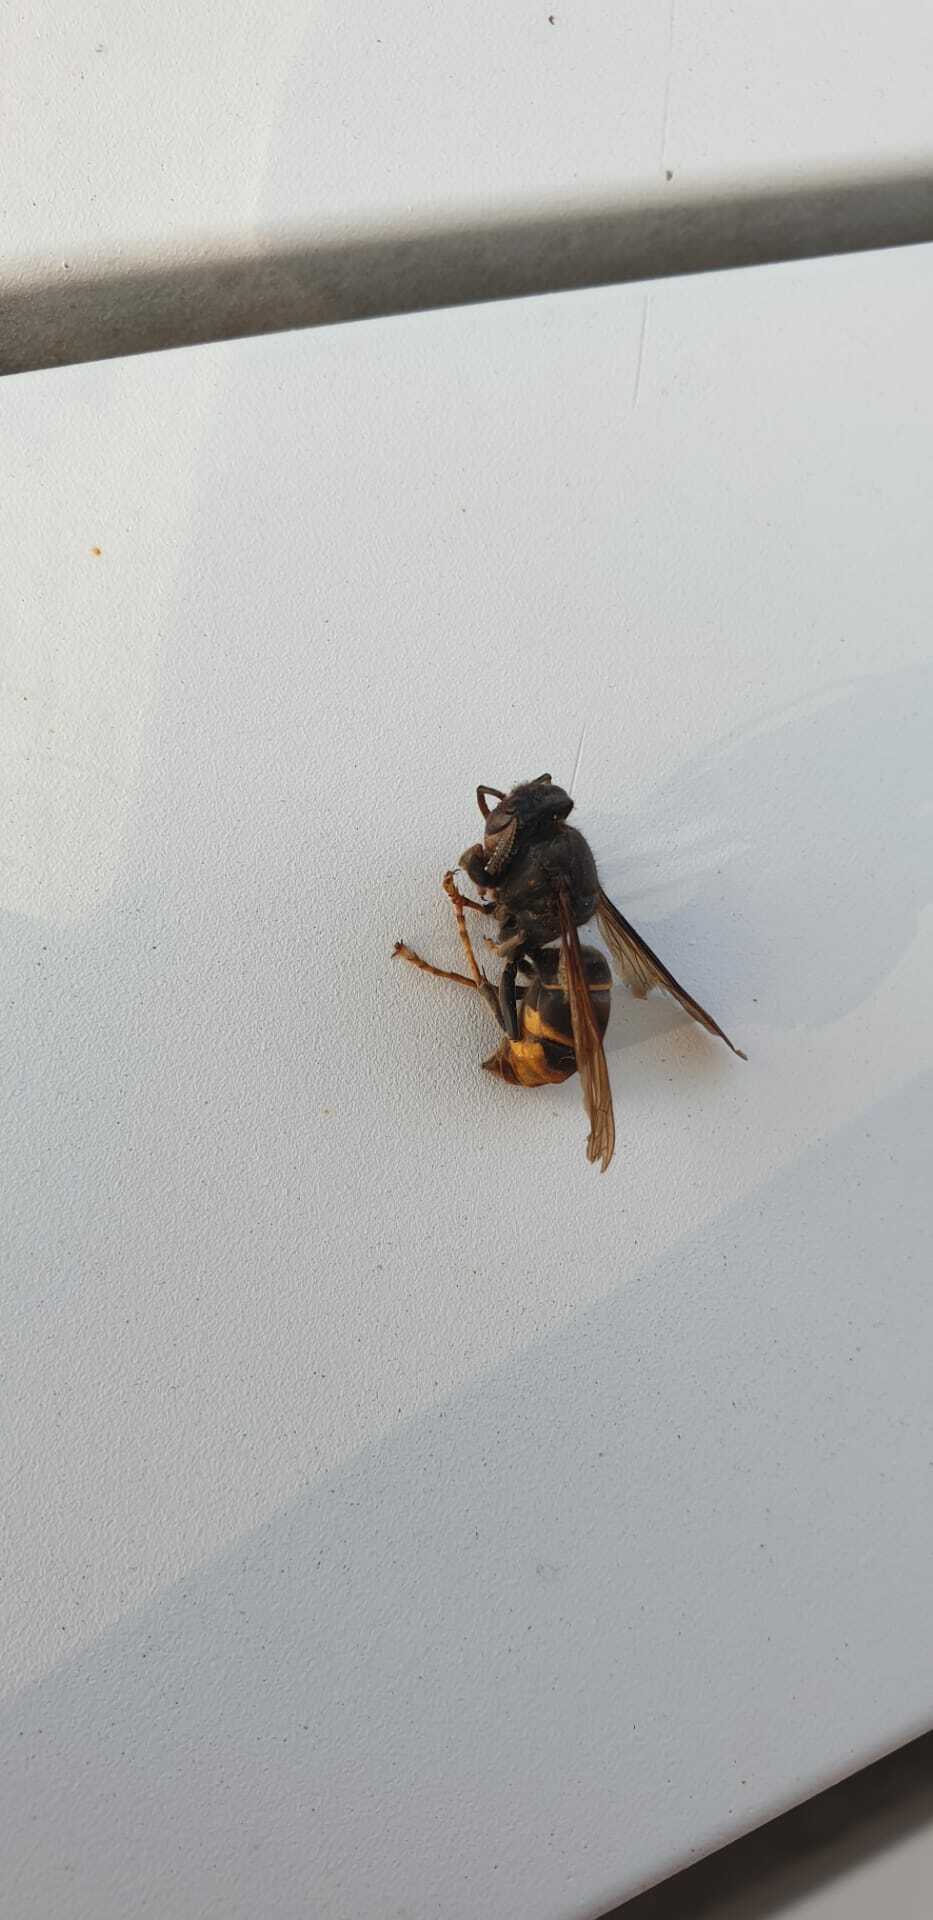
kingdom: Animalia
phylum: Arthropoda
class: Insecta
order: Hymenoptera
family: Vespidae
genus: Vespa
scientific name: Vespa velutina
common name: Asian hornet
